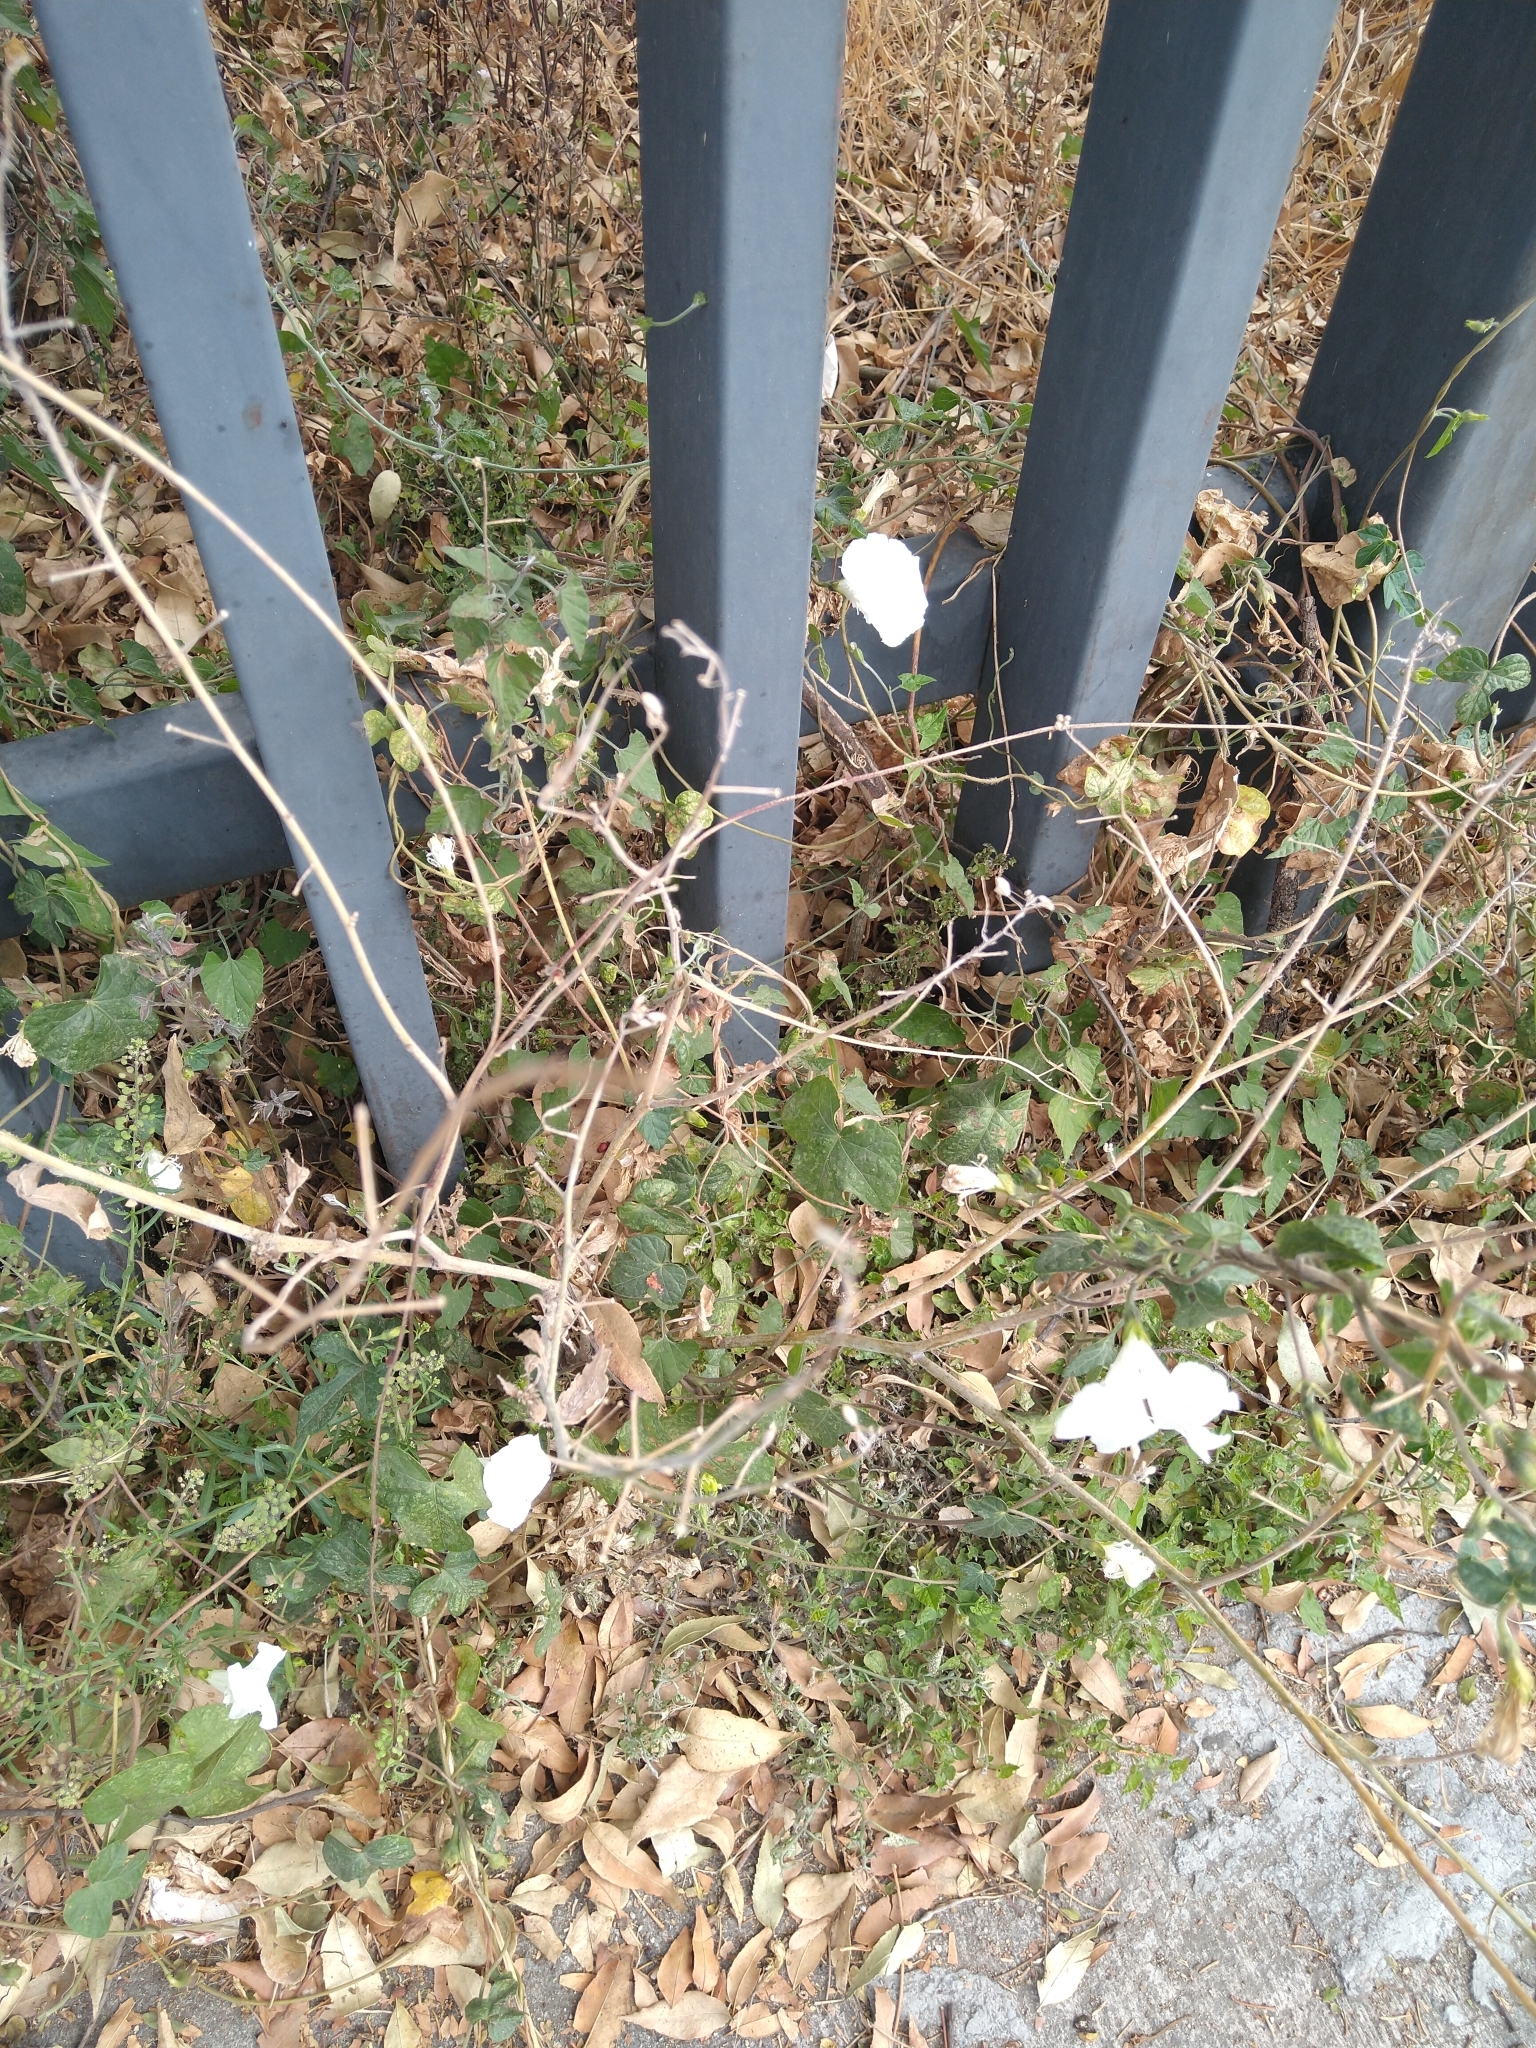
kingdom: Plantae
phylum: Tracheophyta
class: Magnoliopsida
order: Solanales
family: Convolvulaceae
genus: Ipomoea
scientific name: Ipomoea purpurea
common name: Common morning-glory
